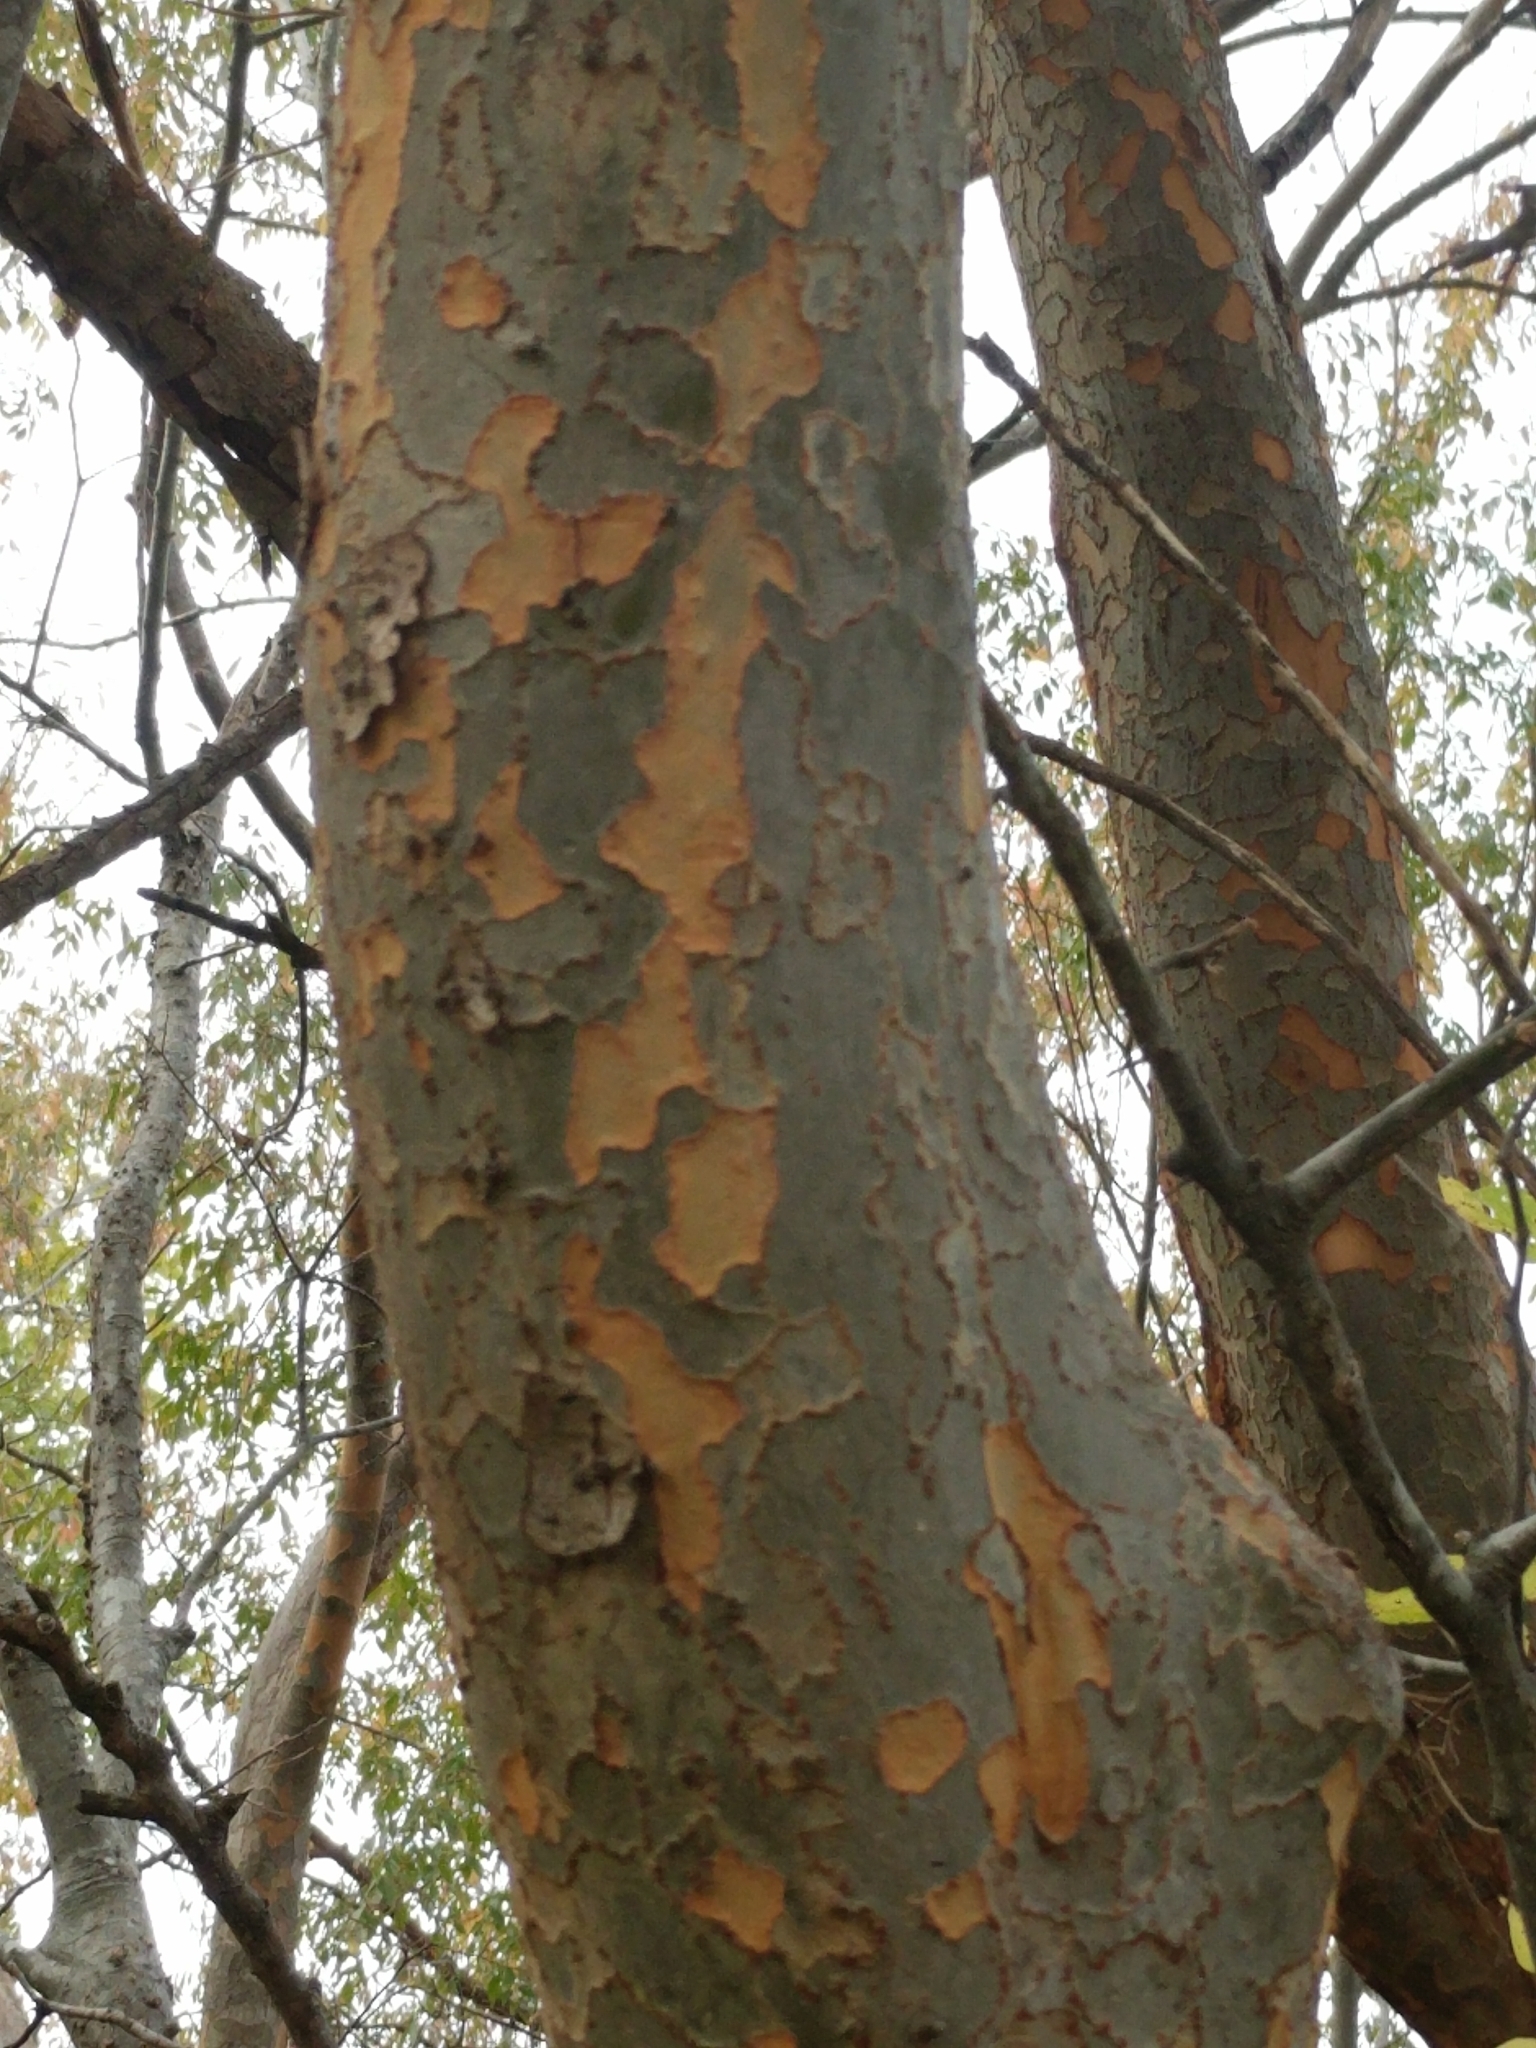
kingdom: Plantae
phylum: Tracheophyta
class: Magnoliopsida
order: Rosales
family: Ulmaceae
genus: Ulmus
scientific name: Ulmus parvifolia
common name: Chinese elm
